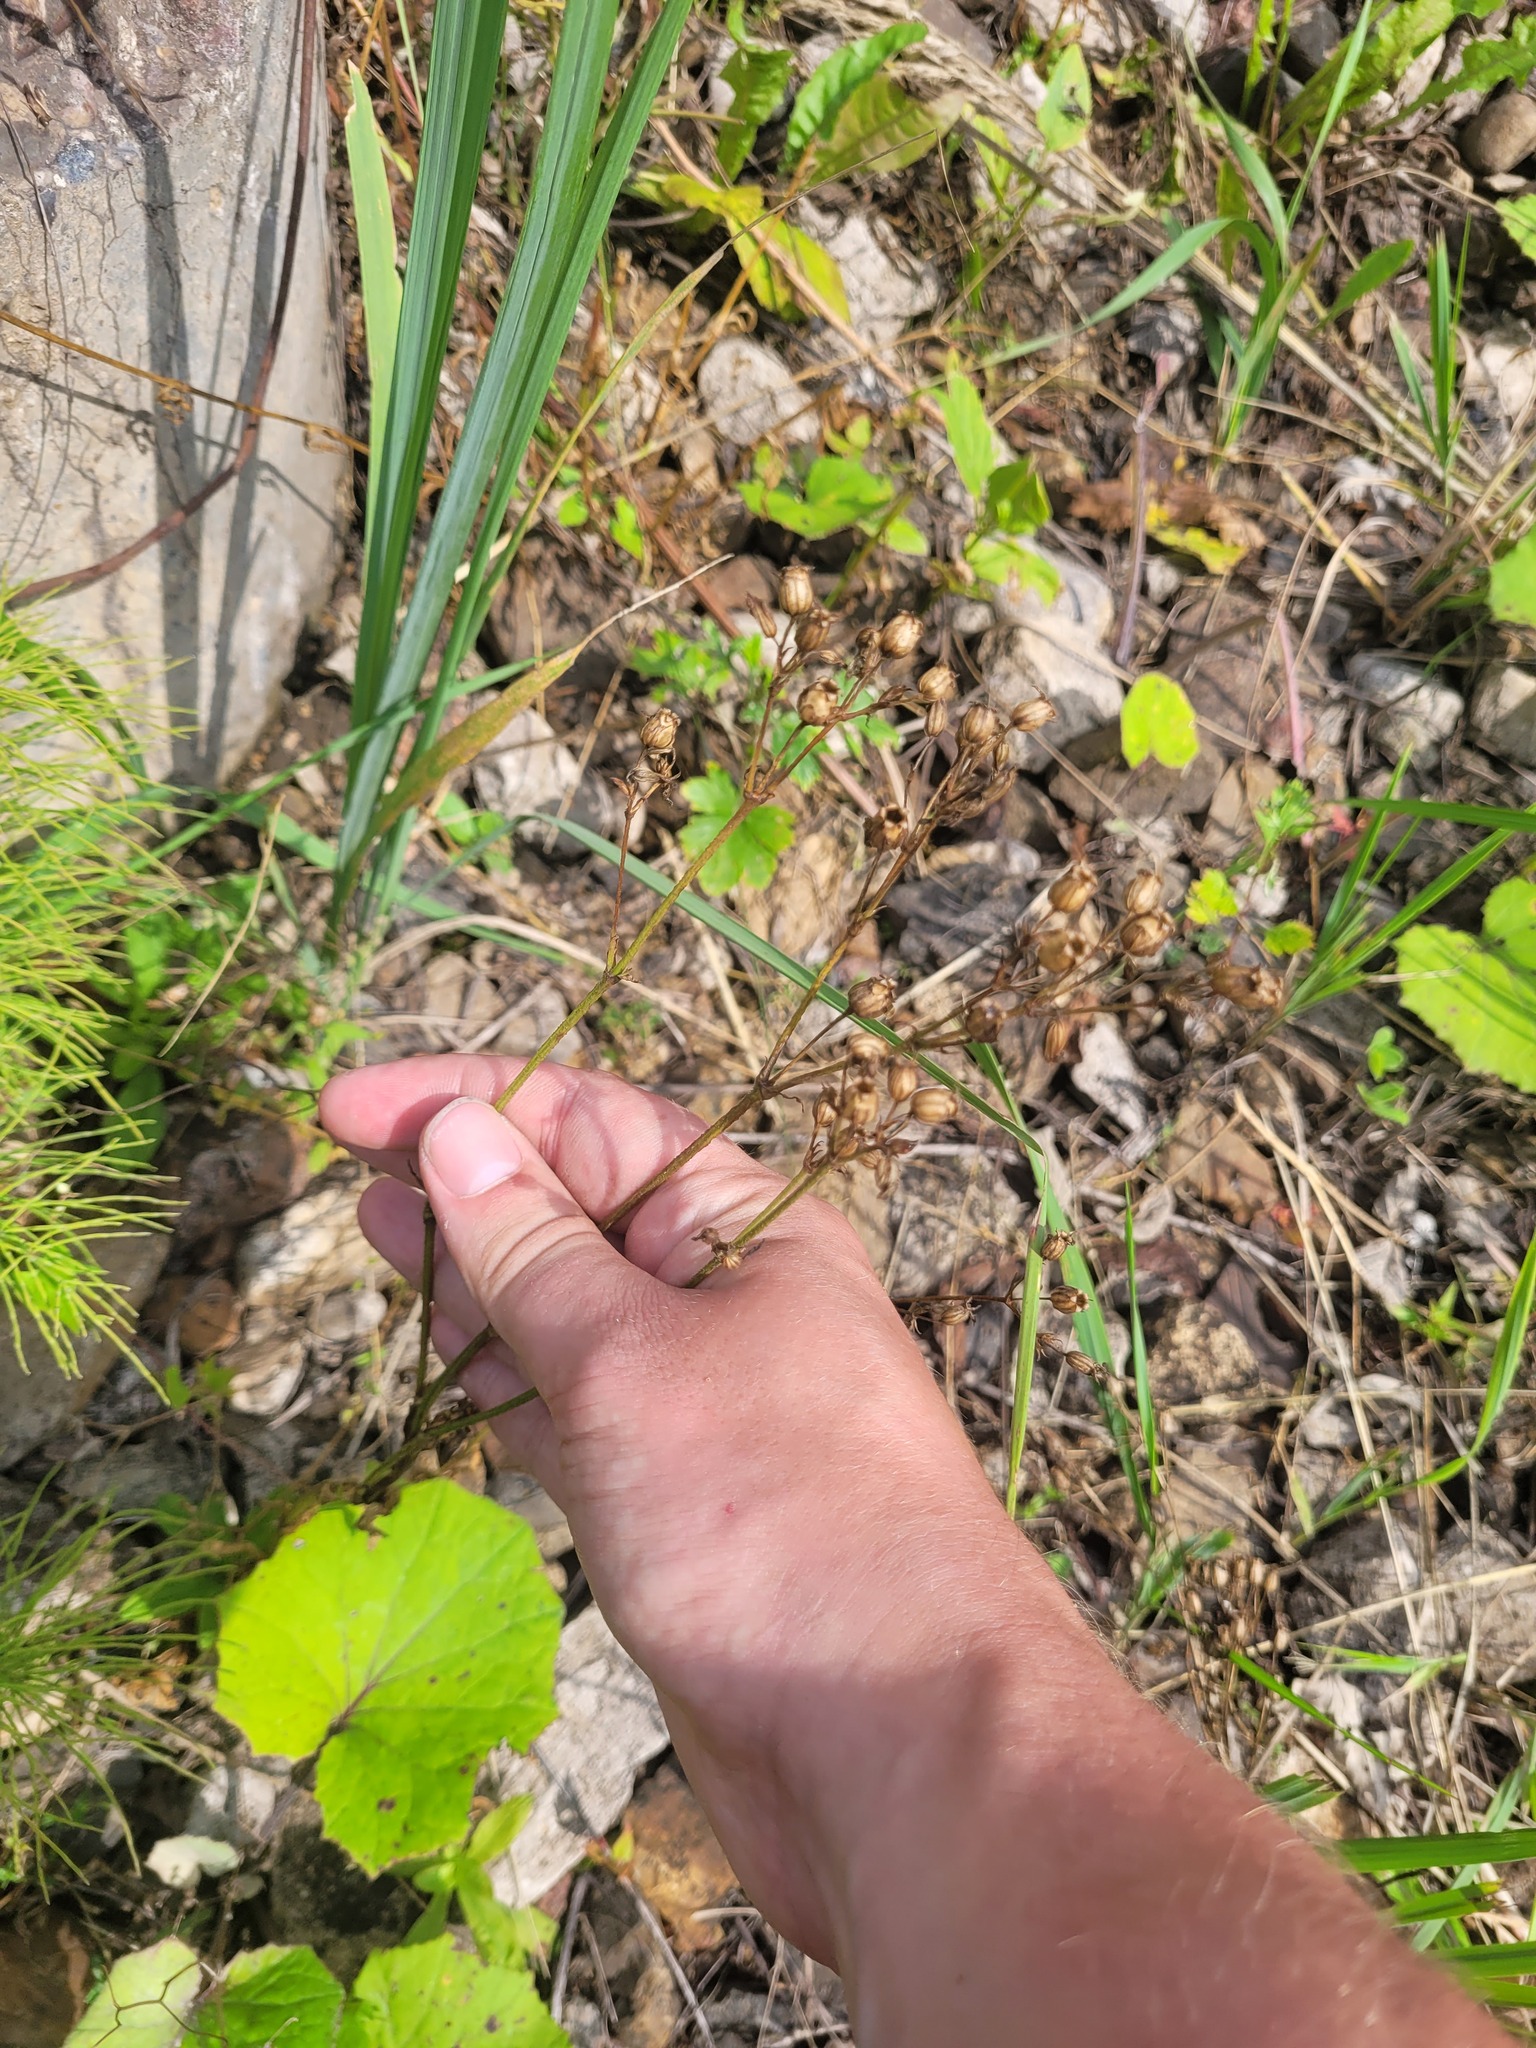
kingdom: Plantae
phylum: Tracheophyta
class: Magnoliopsida
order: Caryophyllales
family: Caryophyllaceae
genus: Silene
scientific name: Silene flos-cuculi
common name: Ragged-robin
